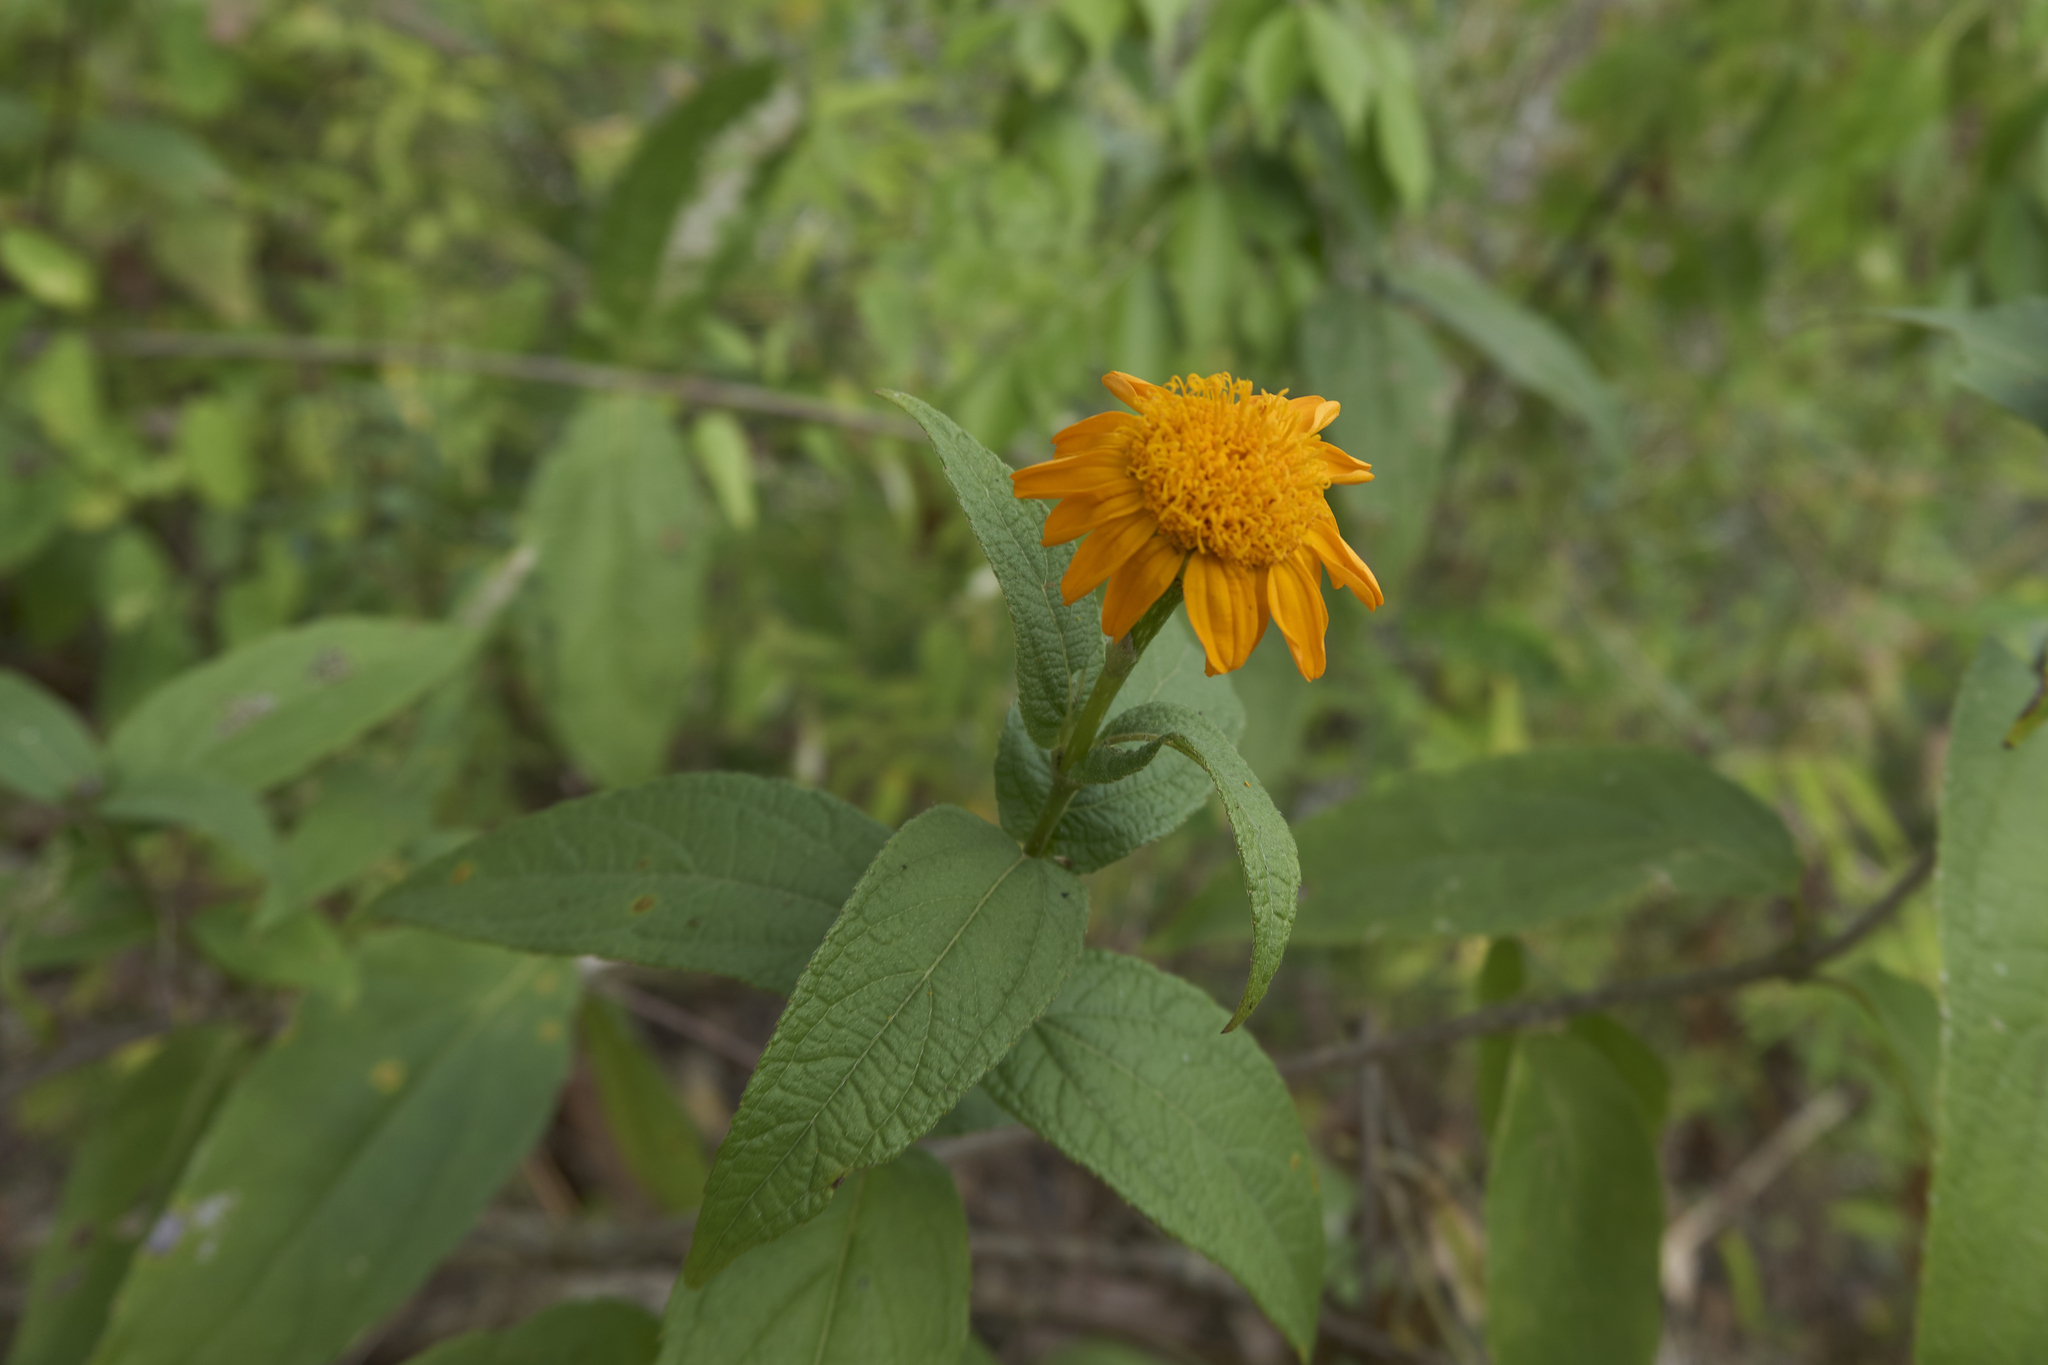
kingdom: Plantae
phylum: Tracheophyta
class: Magnoliopsida
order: Asterales
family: Asteraceae
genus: Lasianthaea
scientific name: Lasianthaea macrocephala
